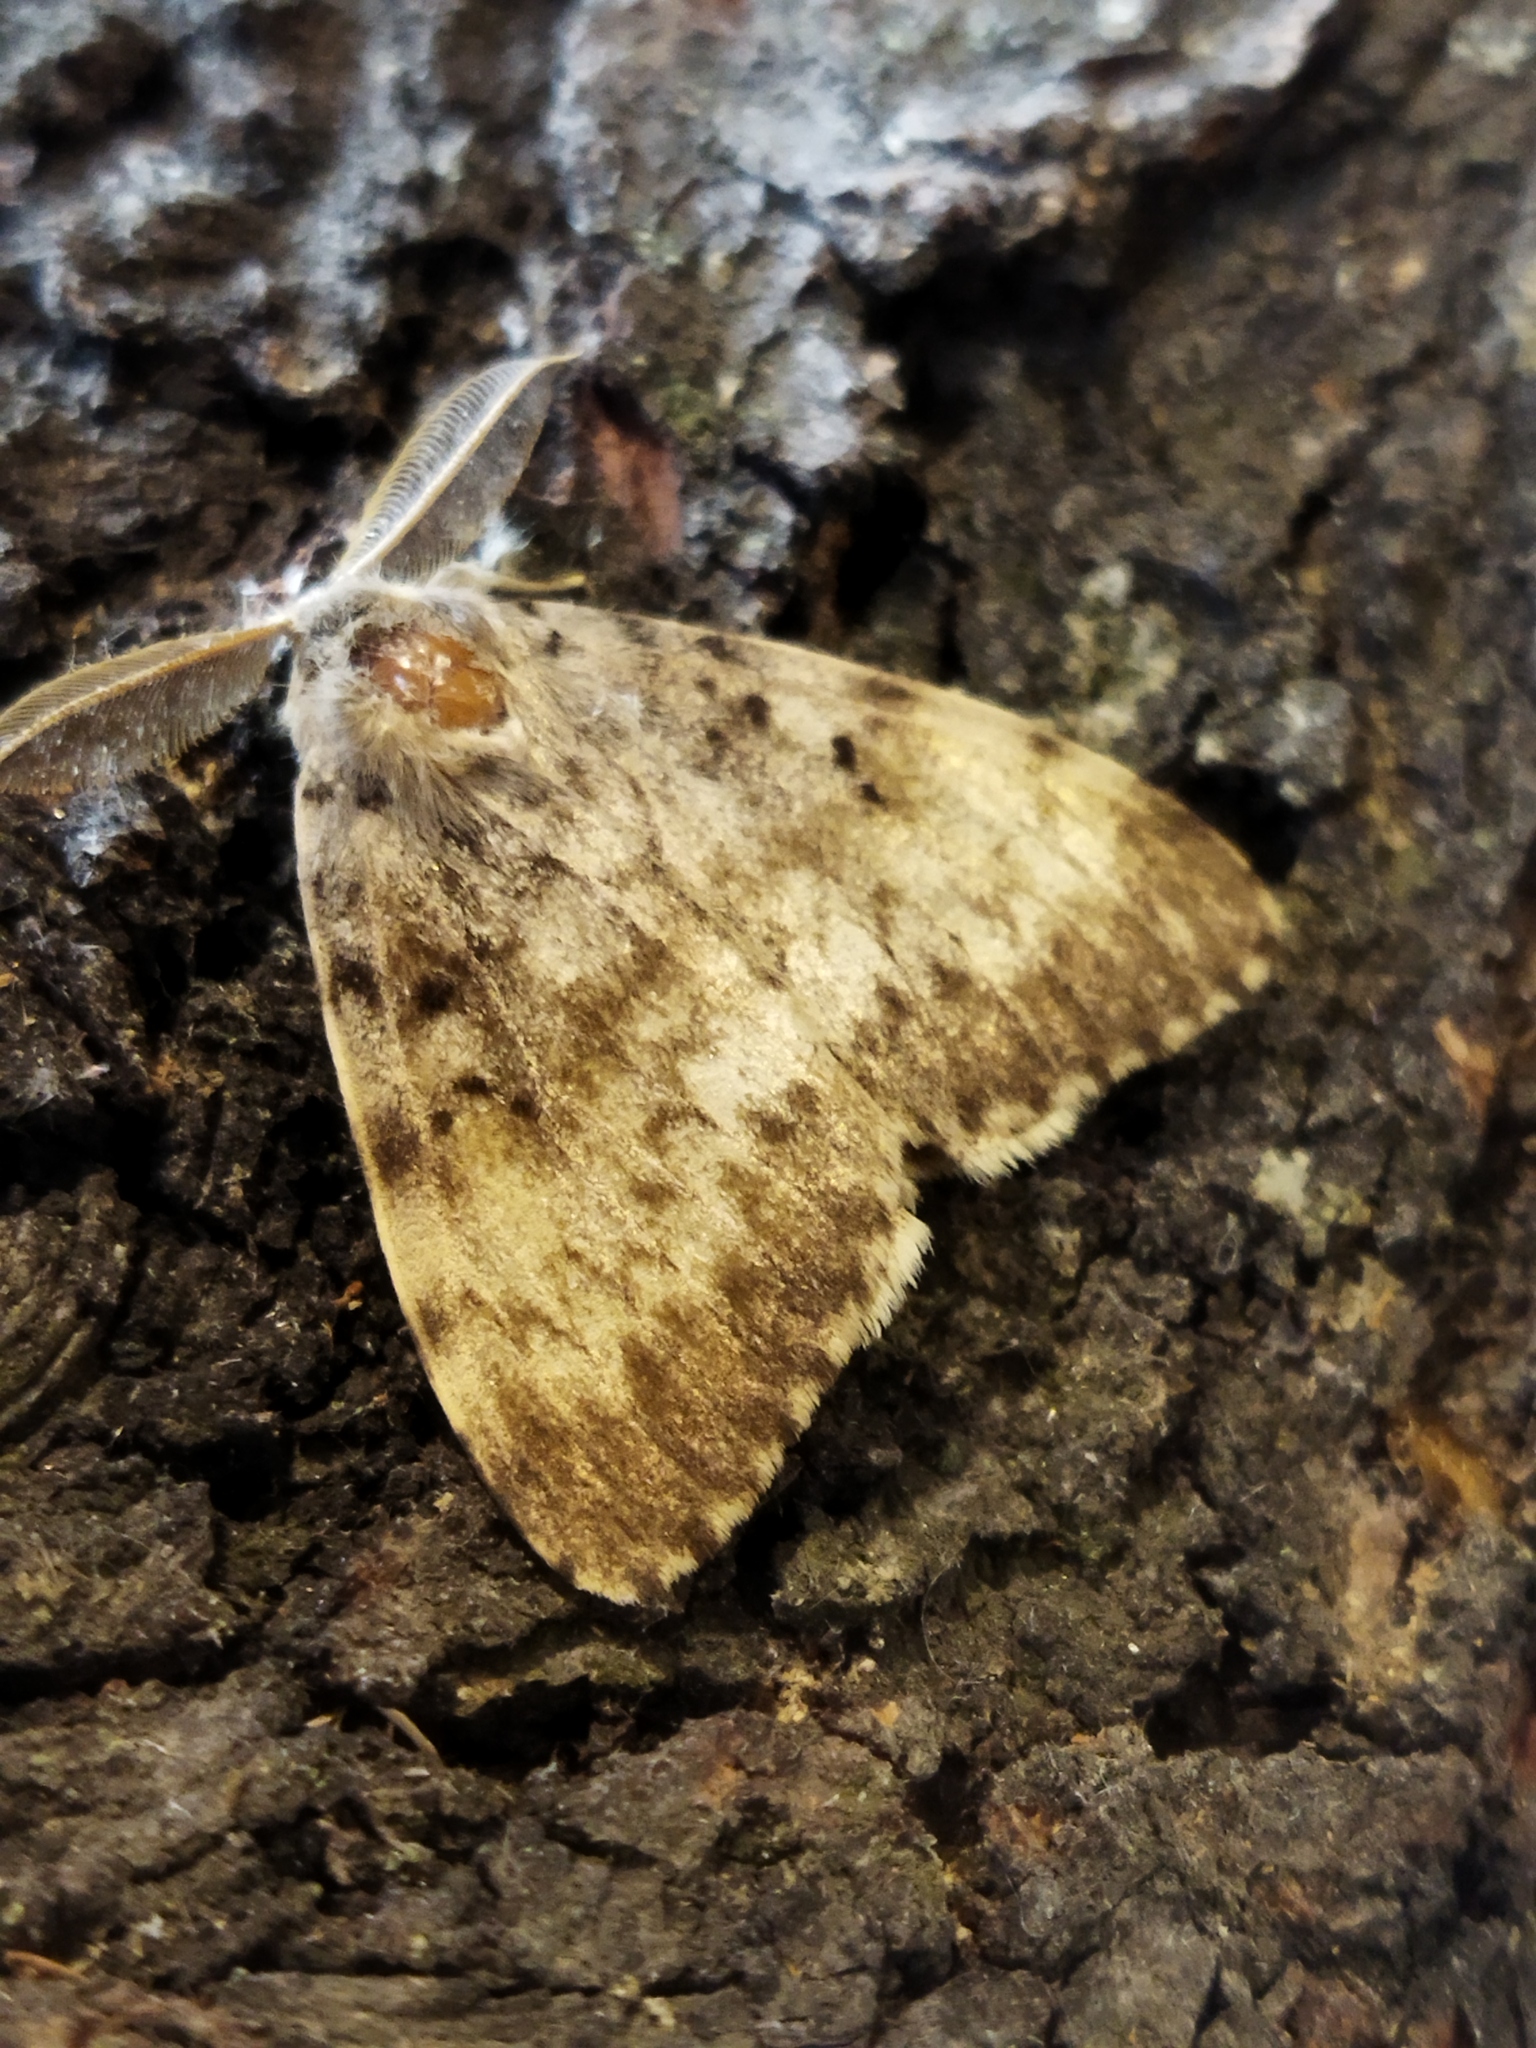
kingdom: Animalia
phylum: Arthropoda
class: Insecta
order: Lepidoptera
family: Erebidae
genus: Lymantria
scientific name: Lymantria dispar
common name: Gypsy moth
